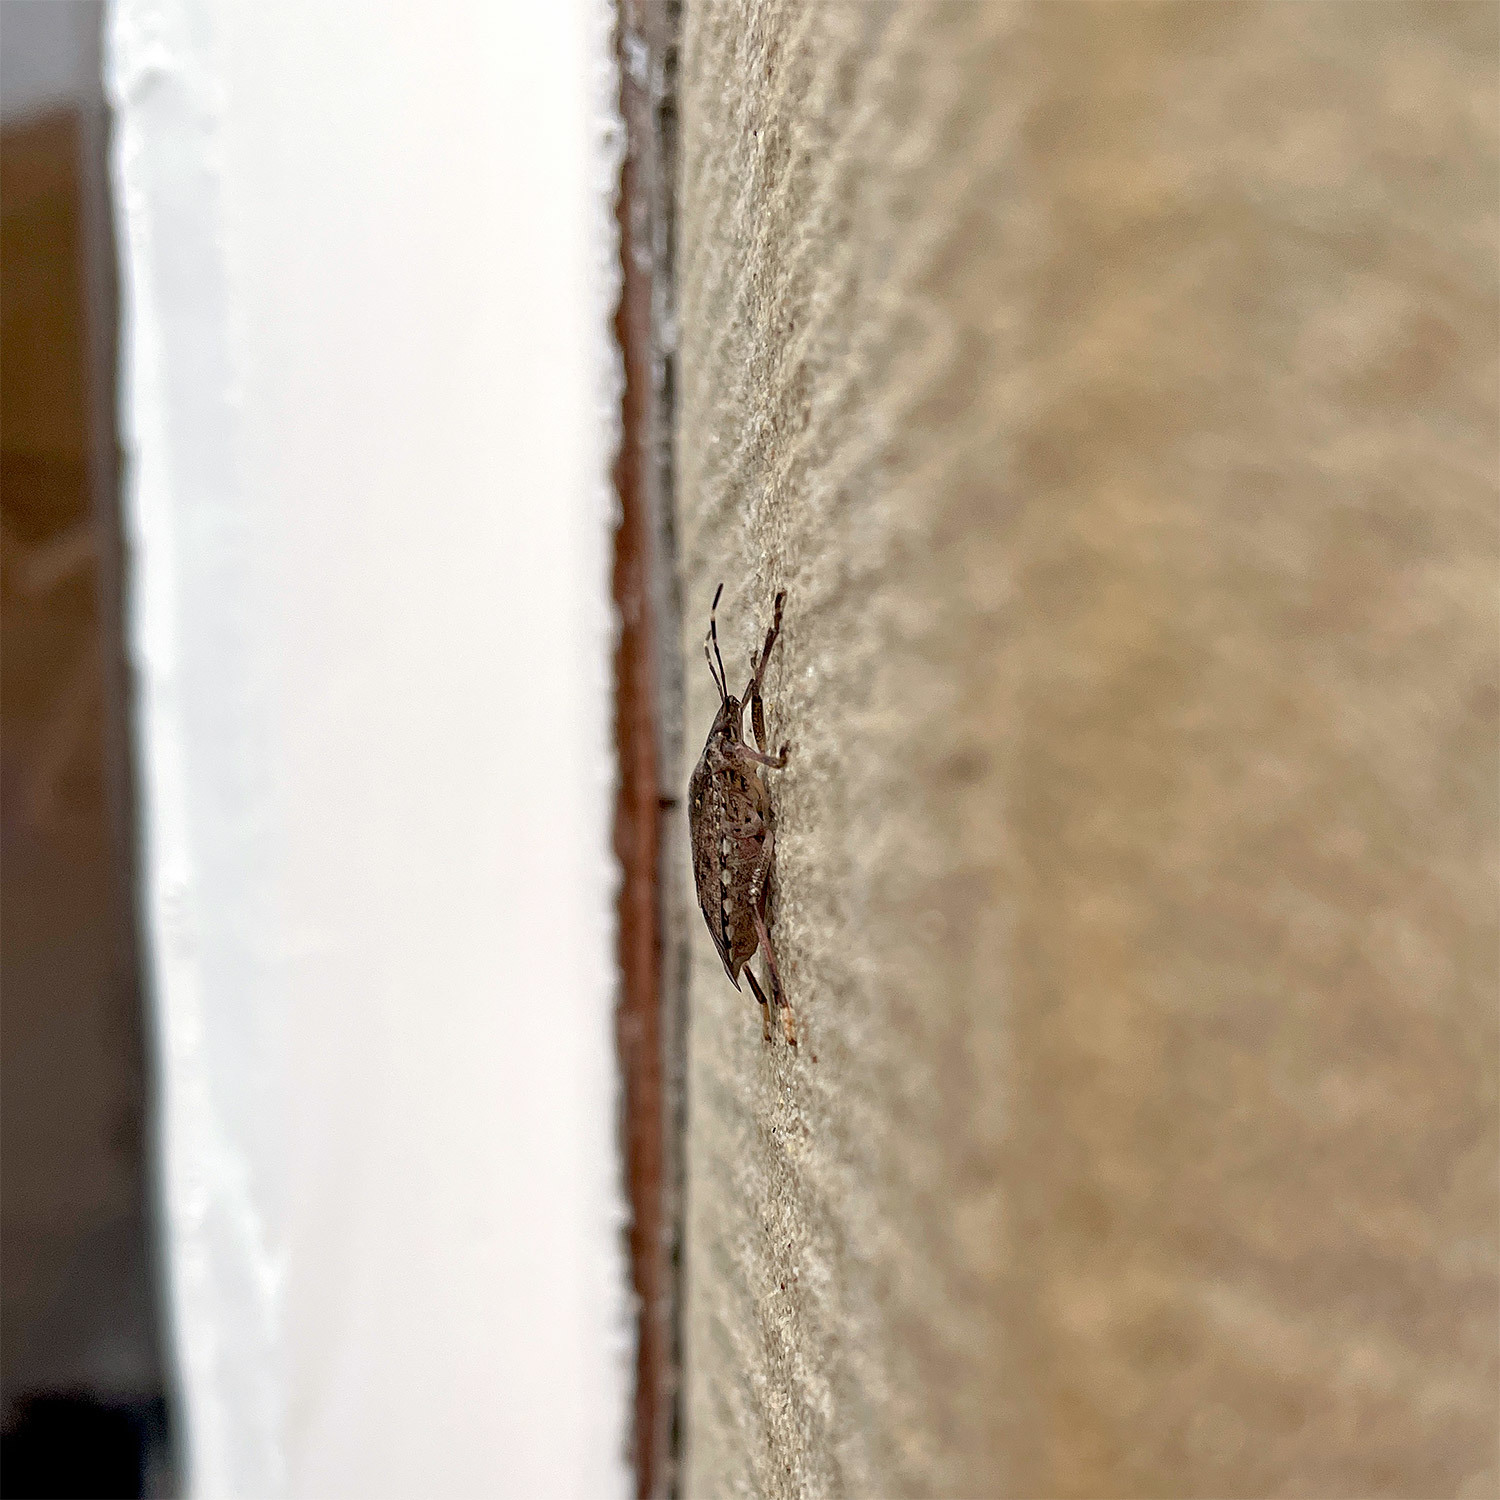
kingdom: Animalia
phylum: Arthropoda
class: Insecta
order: Hemiptera
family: Pentatomidae
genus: Halyomorpha
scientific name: Halyomorpha halys
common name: Brown marmorated stink bug
